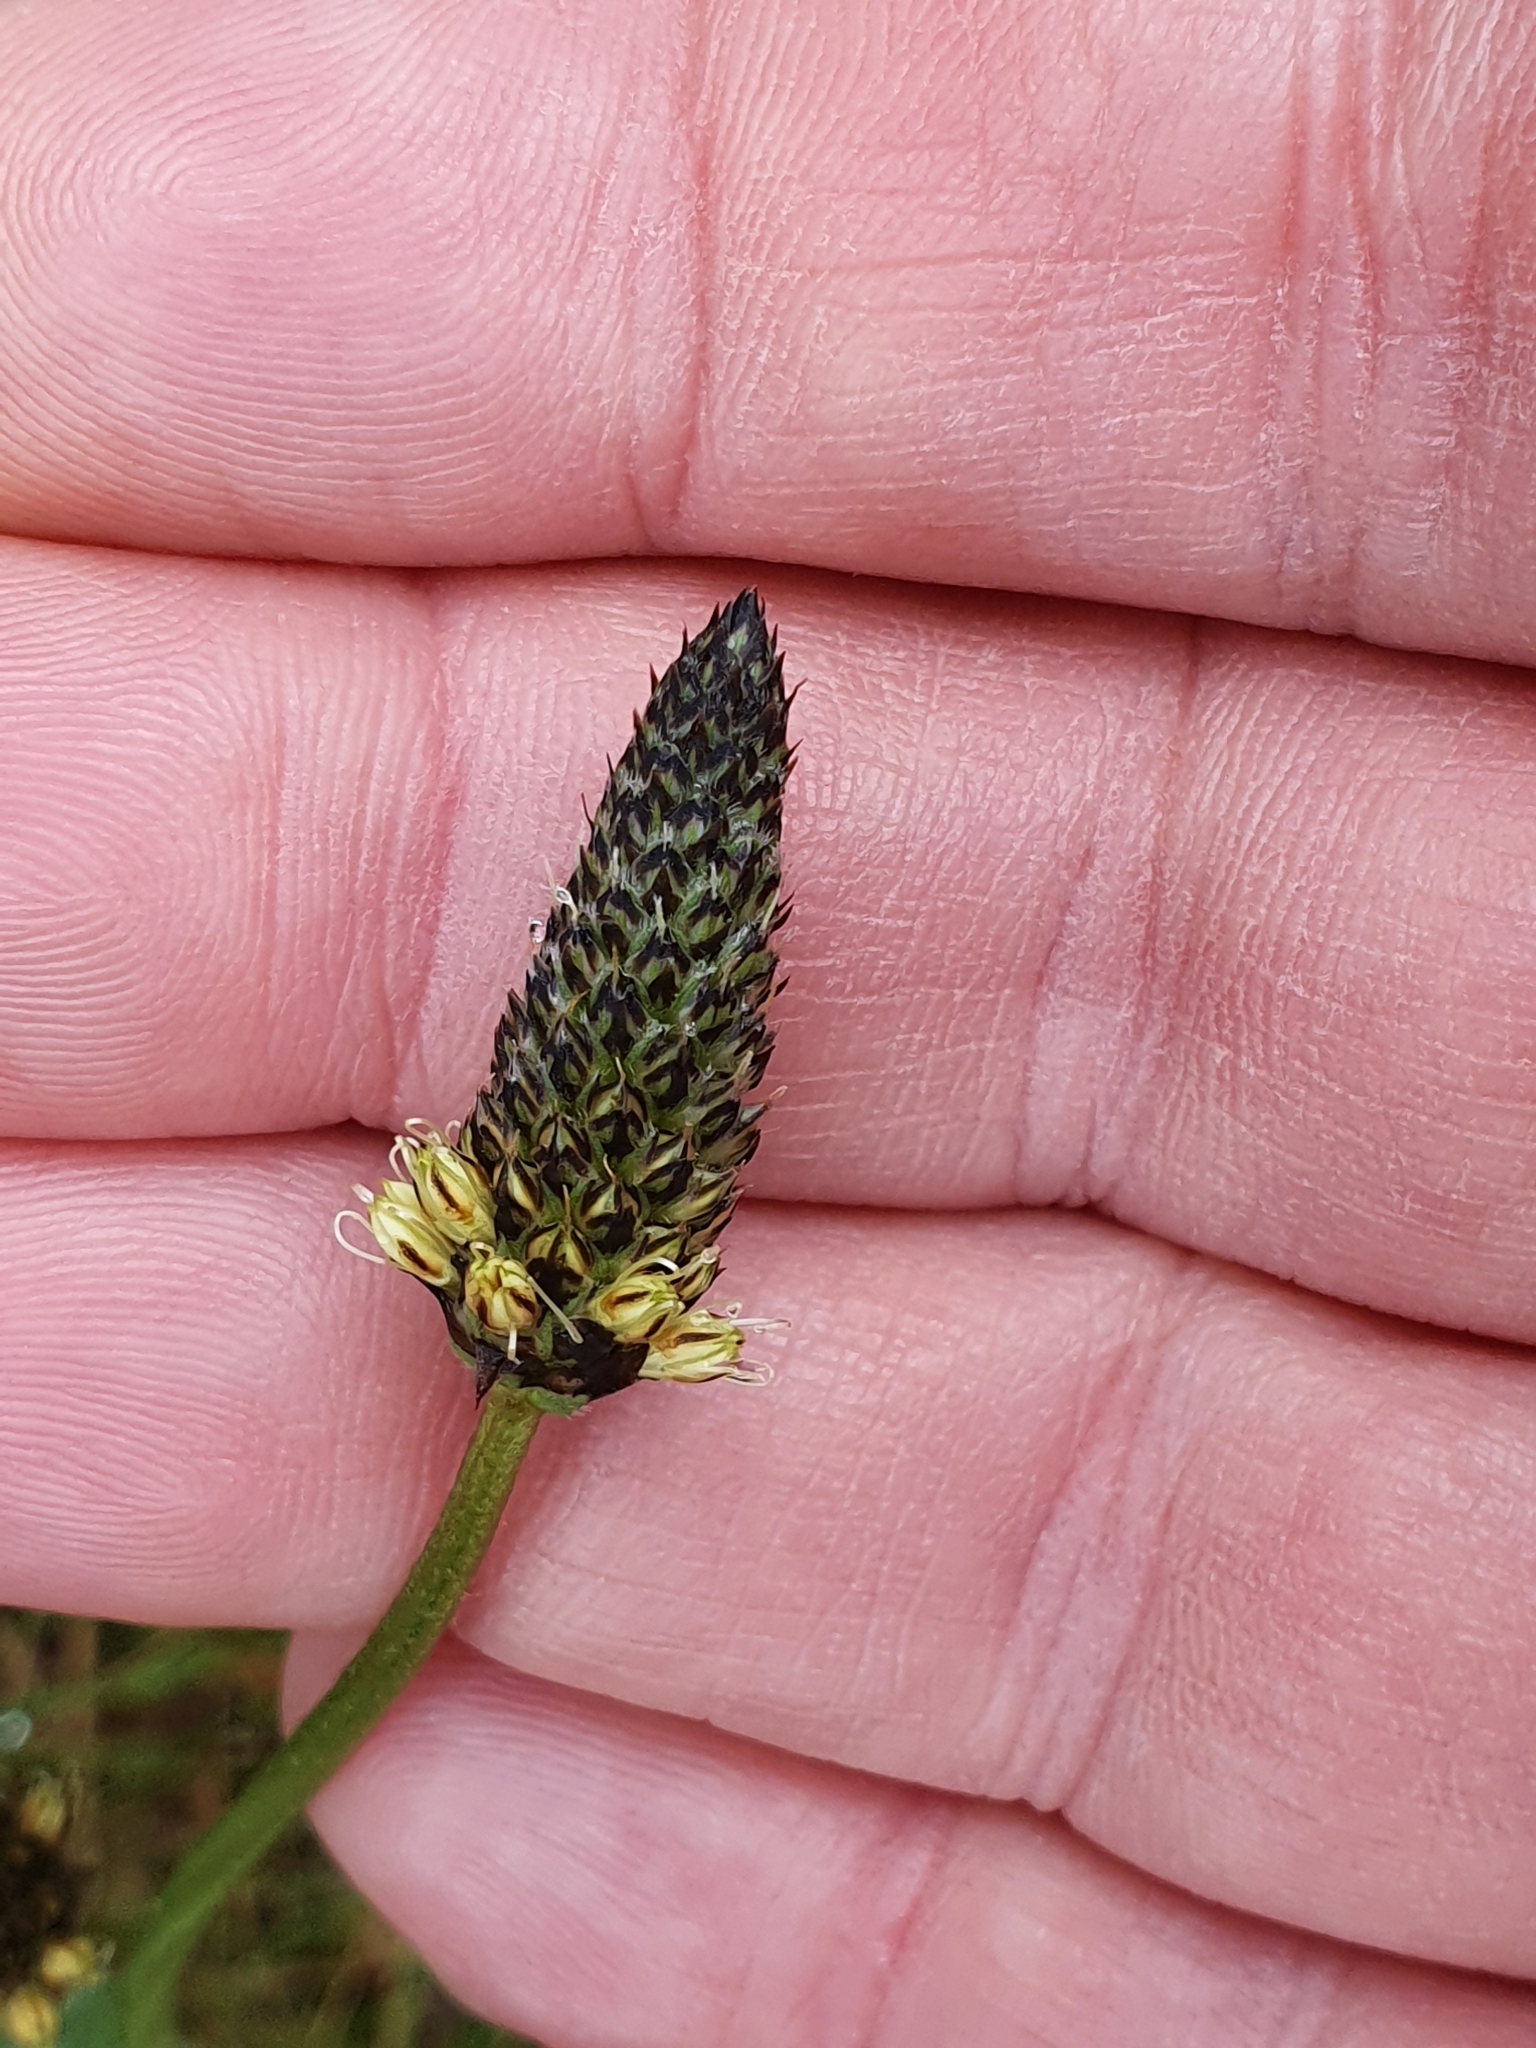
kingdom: Plantae
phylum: Tracheophyta
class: Magnoliopsida
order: Lamiales
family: Plantaginaceae
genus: Plantago
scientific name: Plantago lanceolata
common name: Ribwort plantain
